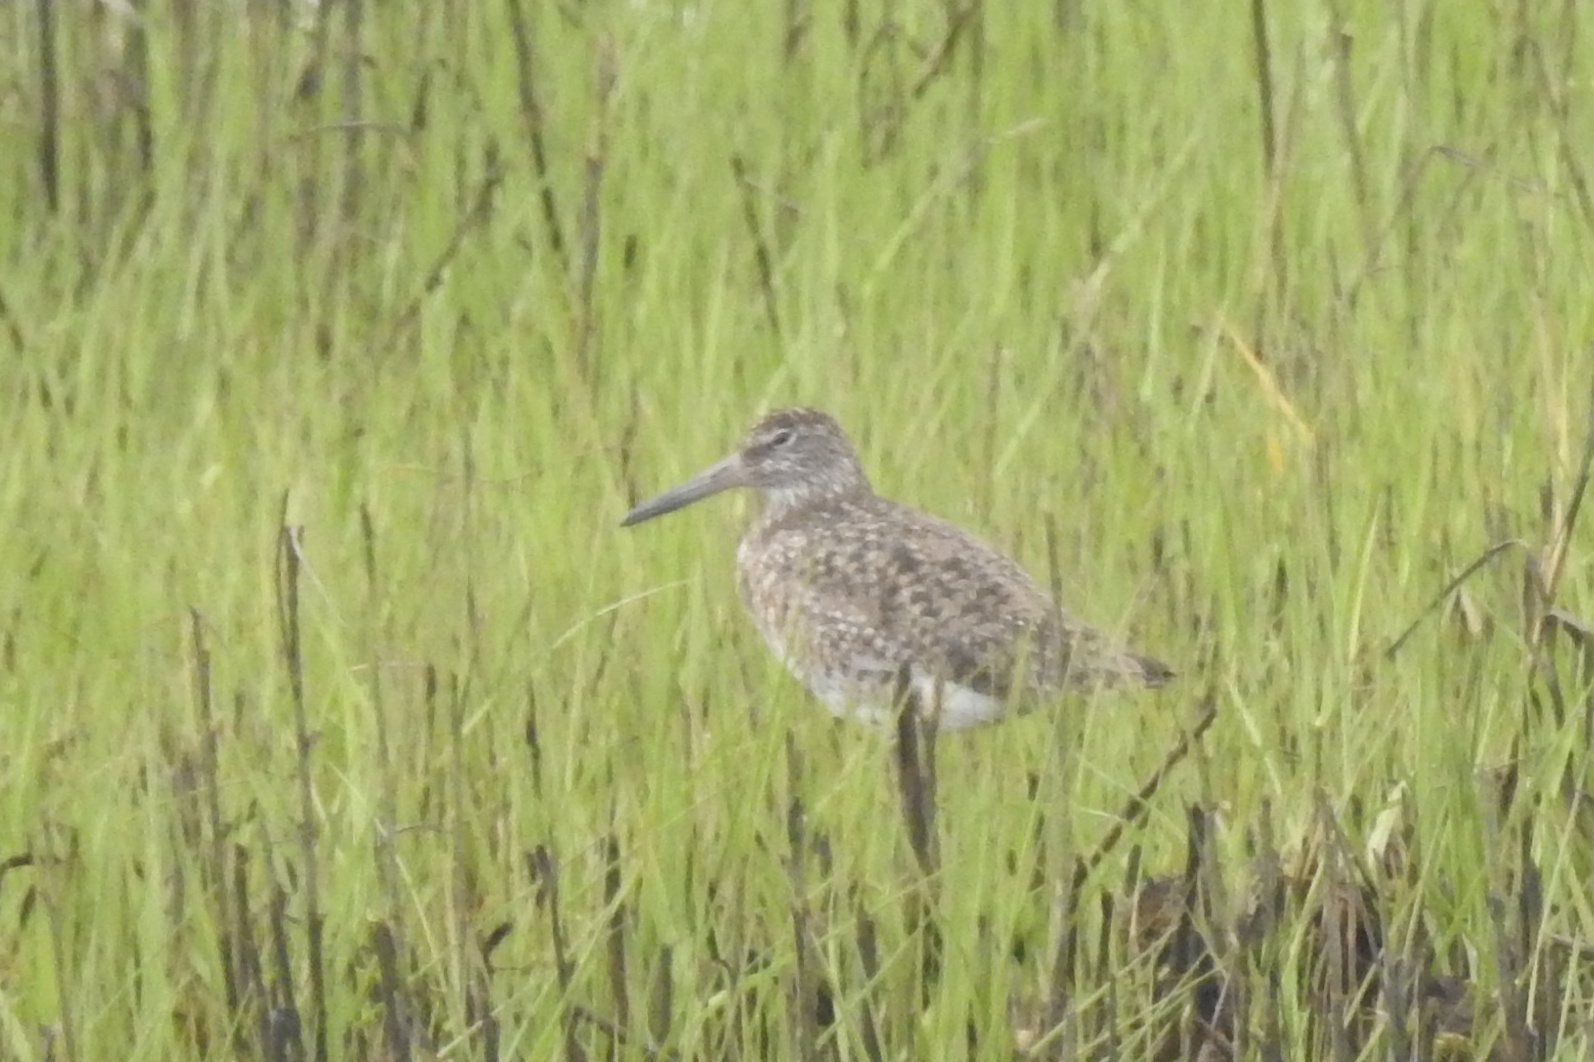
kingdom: Animalia
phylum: Chordata
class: Aves
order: Charadriiformes
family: Scolopacidae
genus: Tringa
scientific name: Tringa semipalmata
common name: Willet
